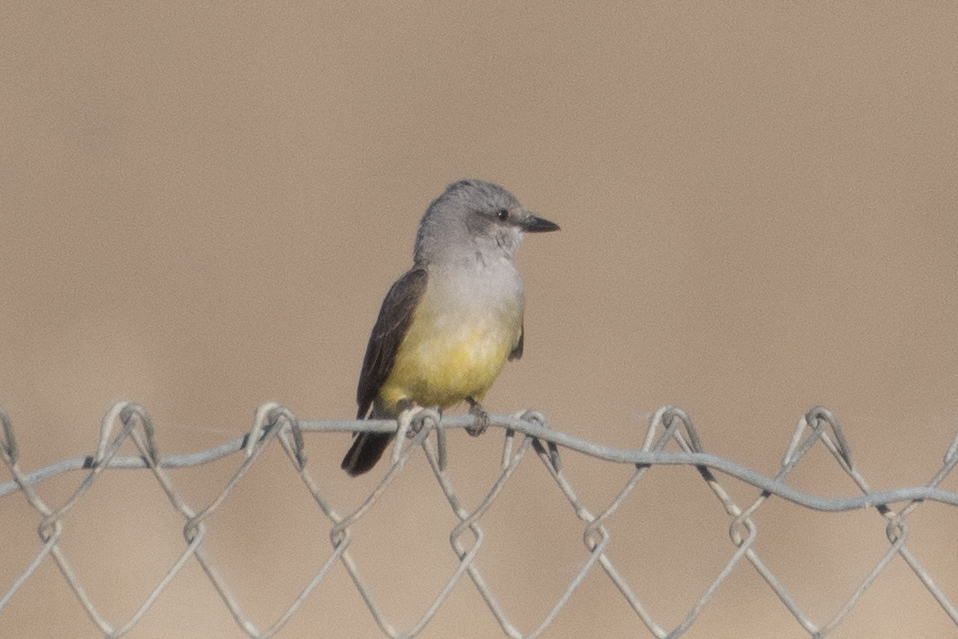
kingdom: Animalia
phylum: Chordata
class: Aves
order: Passeriformes
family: Tyrannidae
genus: Tyrannus
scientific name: Tyrannus verticalis
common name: Western kingbird
